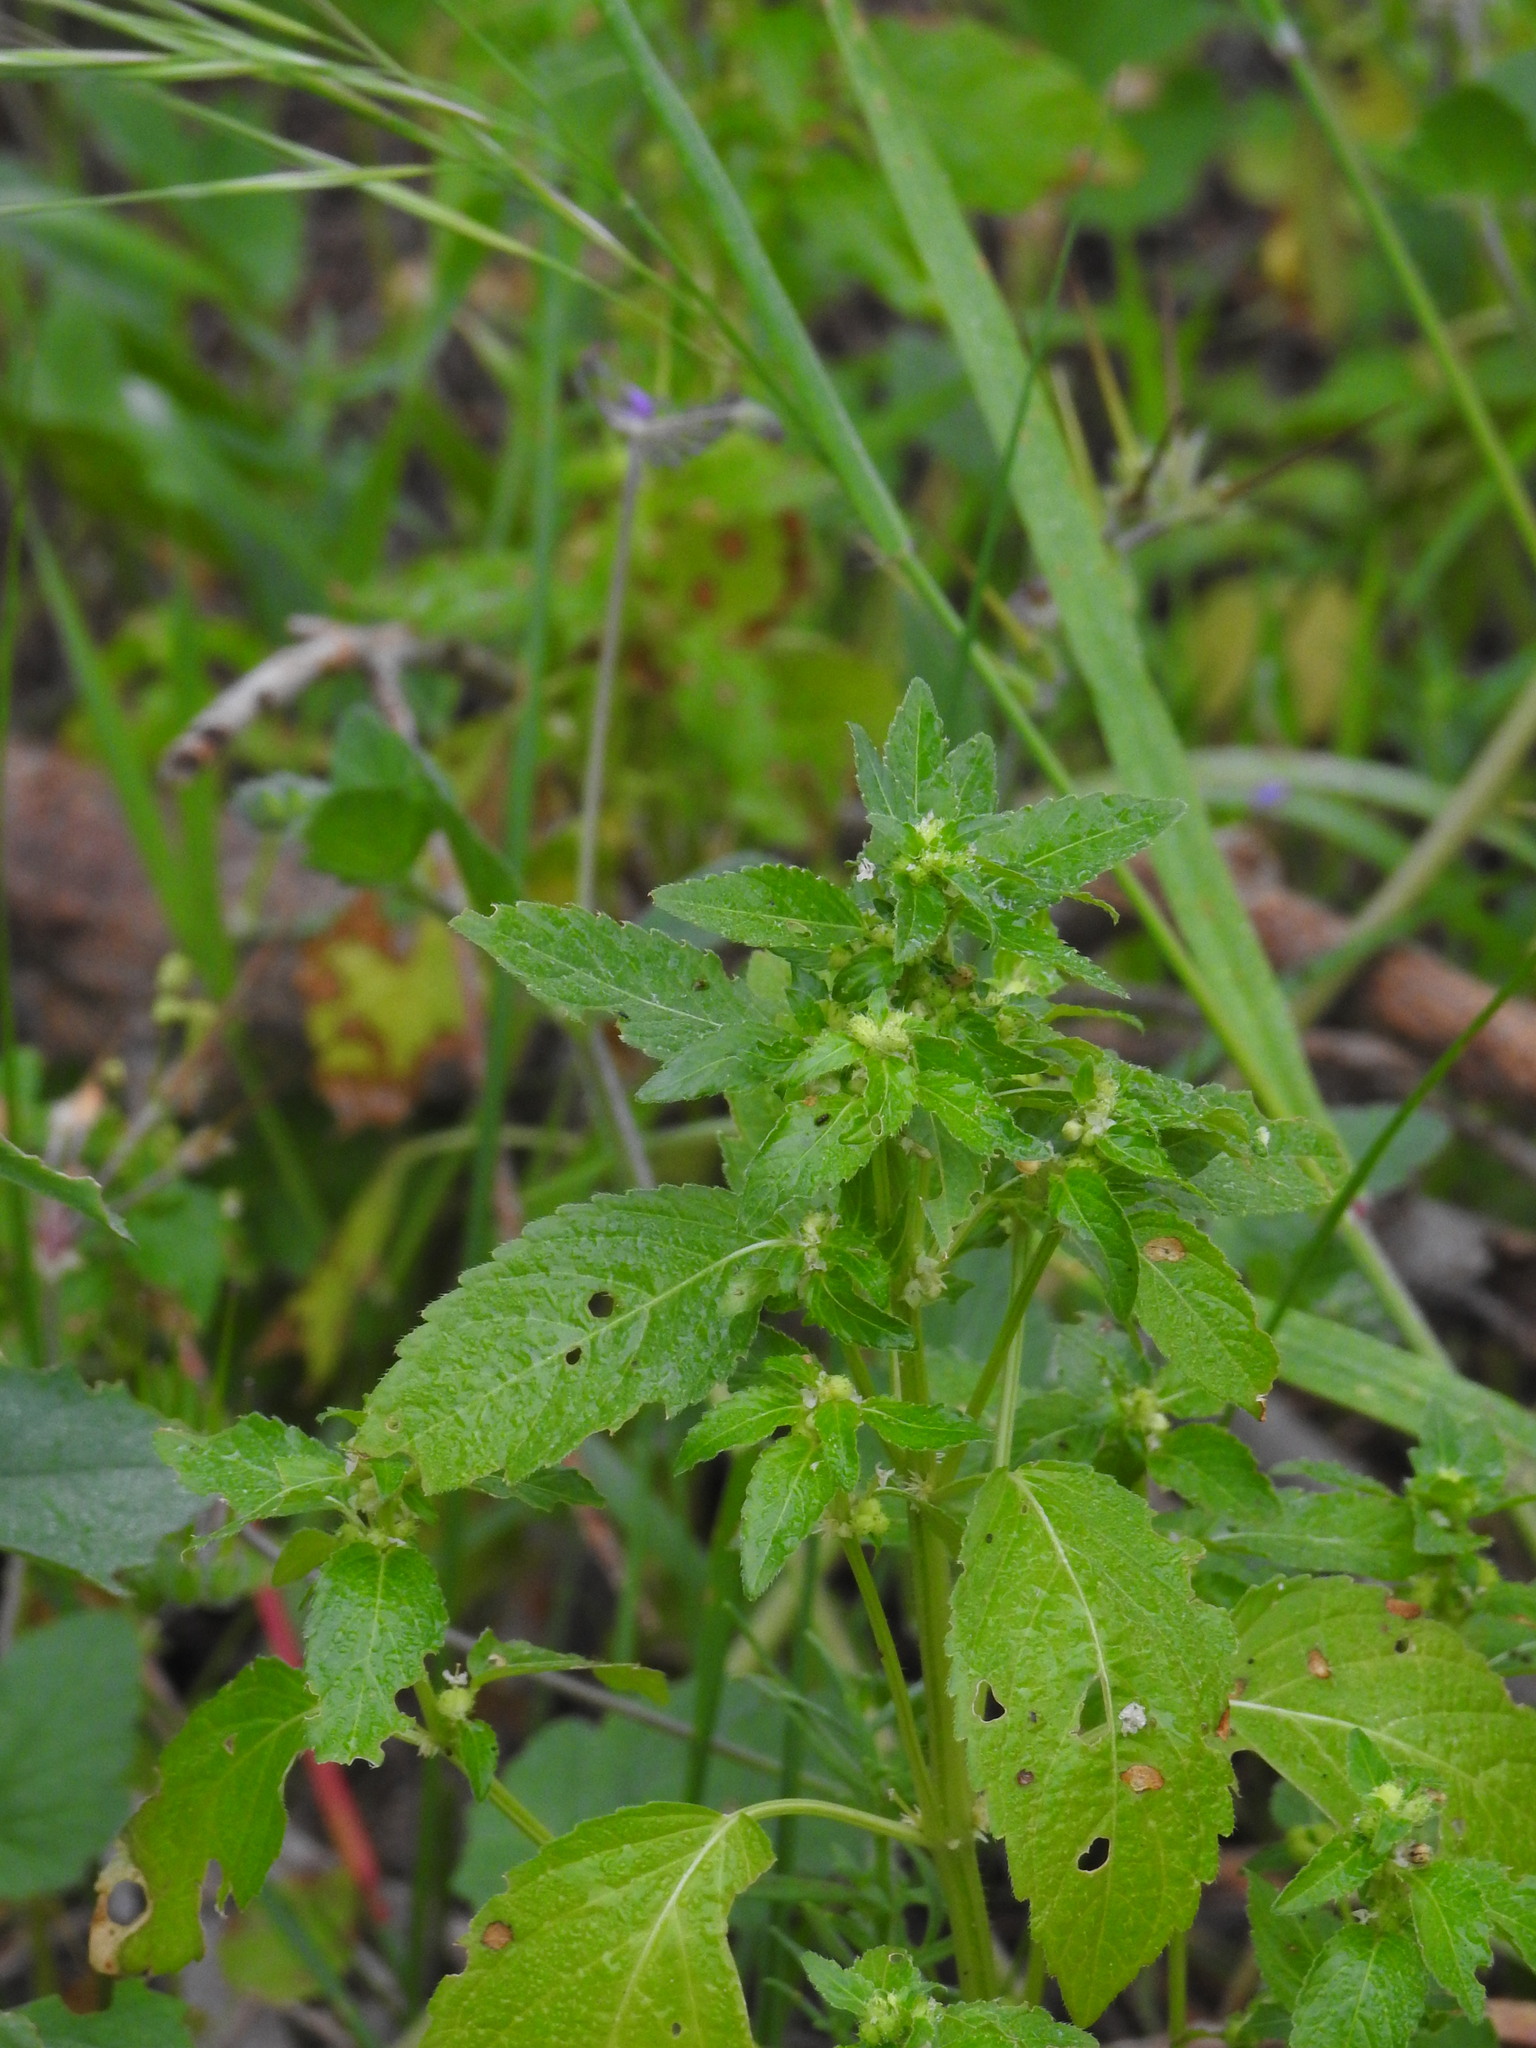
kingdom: Plantae
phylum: Tracheophyta
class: Magnoliopsida
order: Malpighiales
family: Euphorbiaceae
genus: Mercurialis
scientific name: Mercurialis annua
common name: Annual mercury
